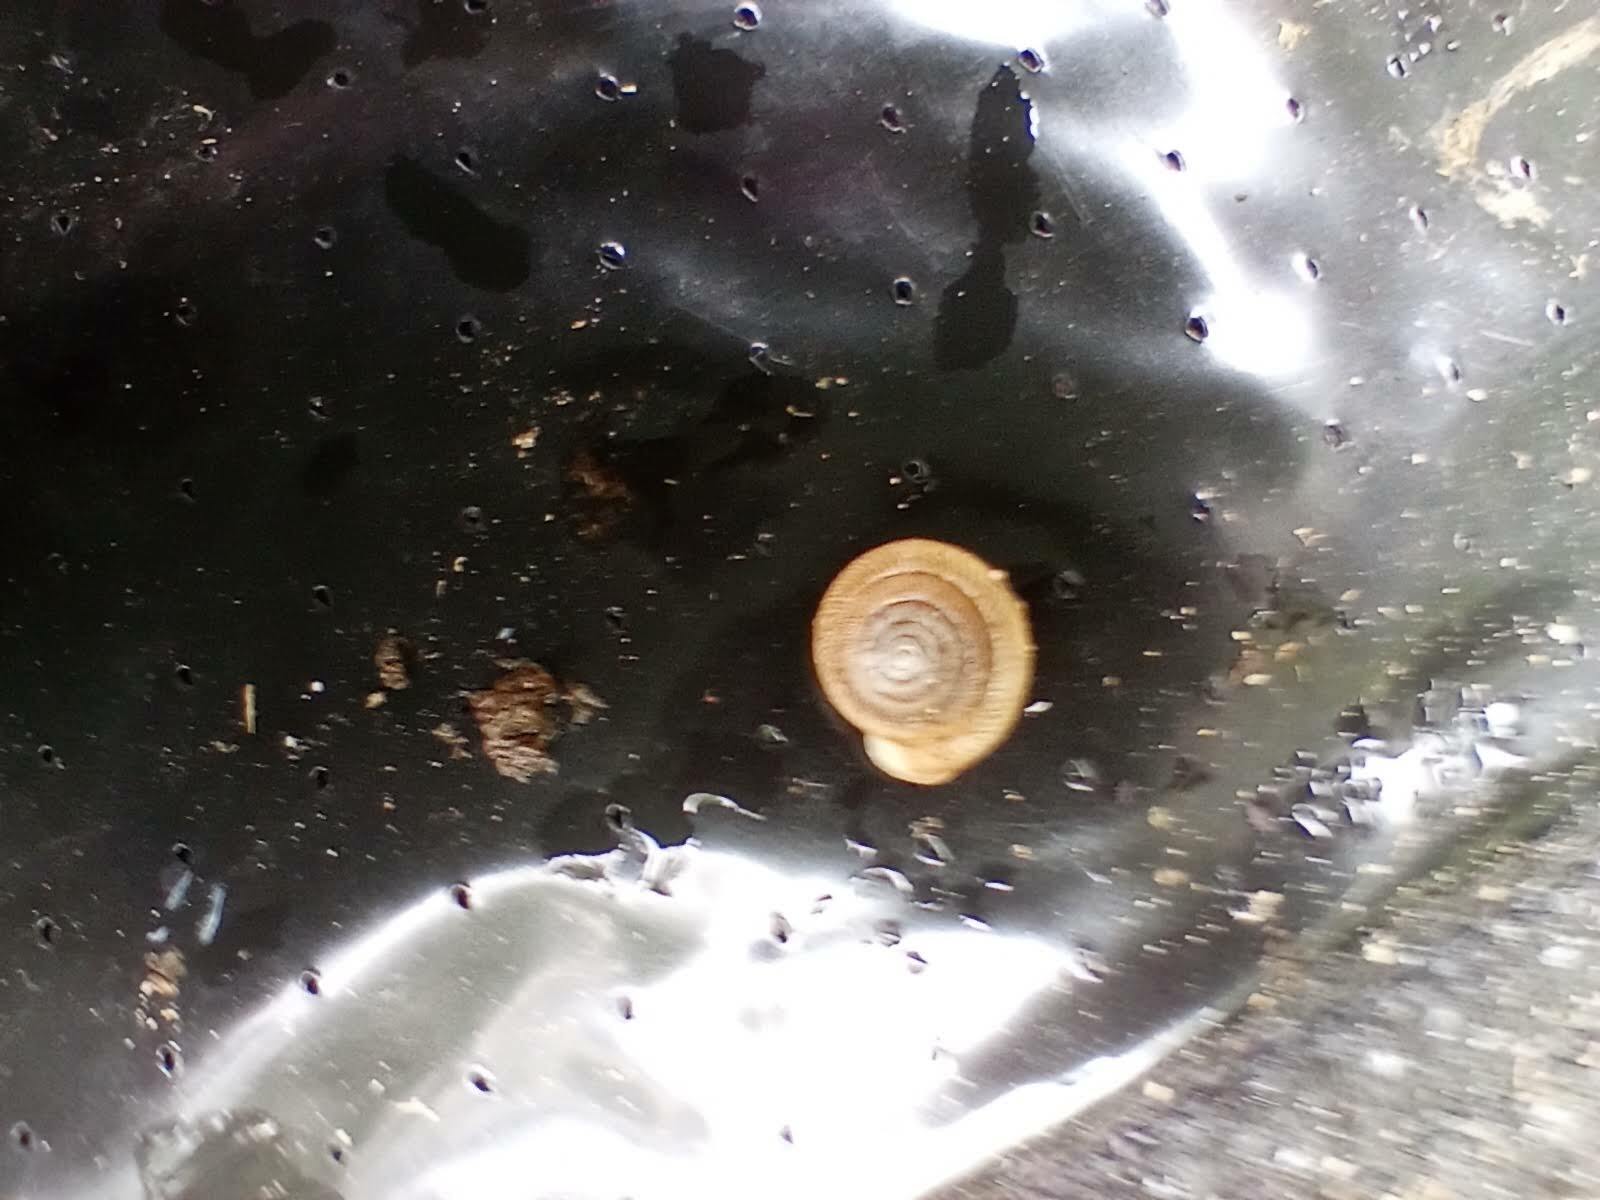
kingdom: Animalia
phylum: Mollusca
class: Gastropoda
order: Stylommatophora
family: Polygyridae
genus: Polygyra
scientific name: Polygyra cereolus
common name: Southern flatcone snail
